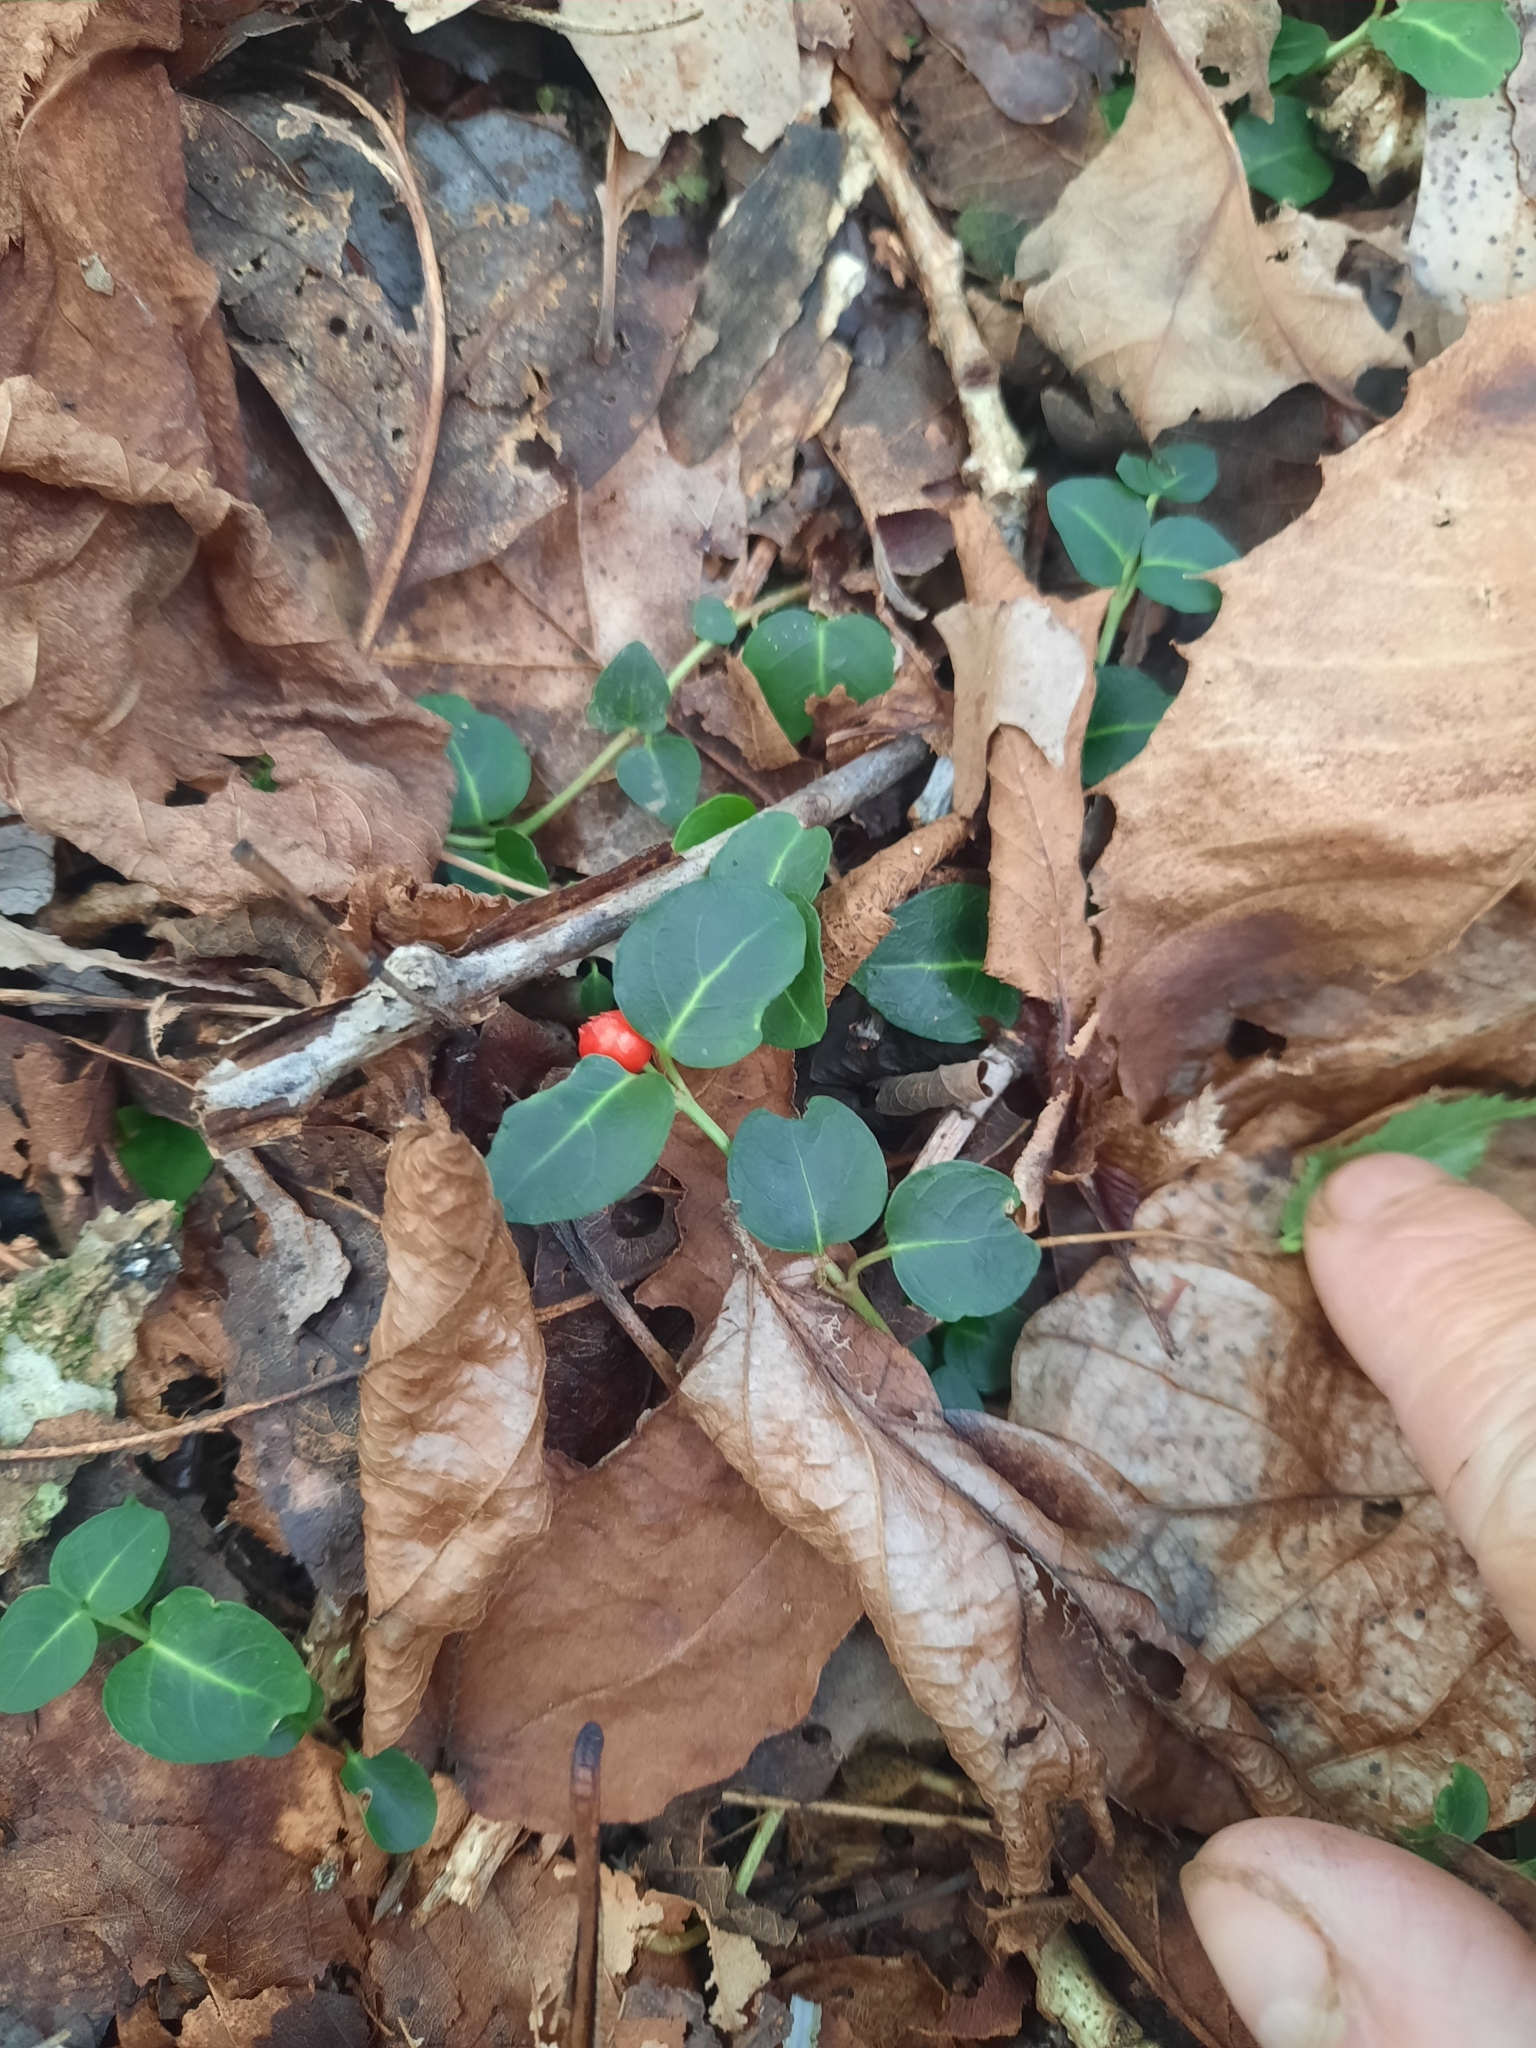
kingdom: Plantae
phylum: Tracheophyta
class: Magnoliopsida
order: Gentianales
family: Rubiaceae
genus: Mitchella
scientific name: Mitchella repens
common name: Partridge-berry
